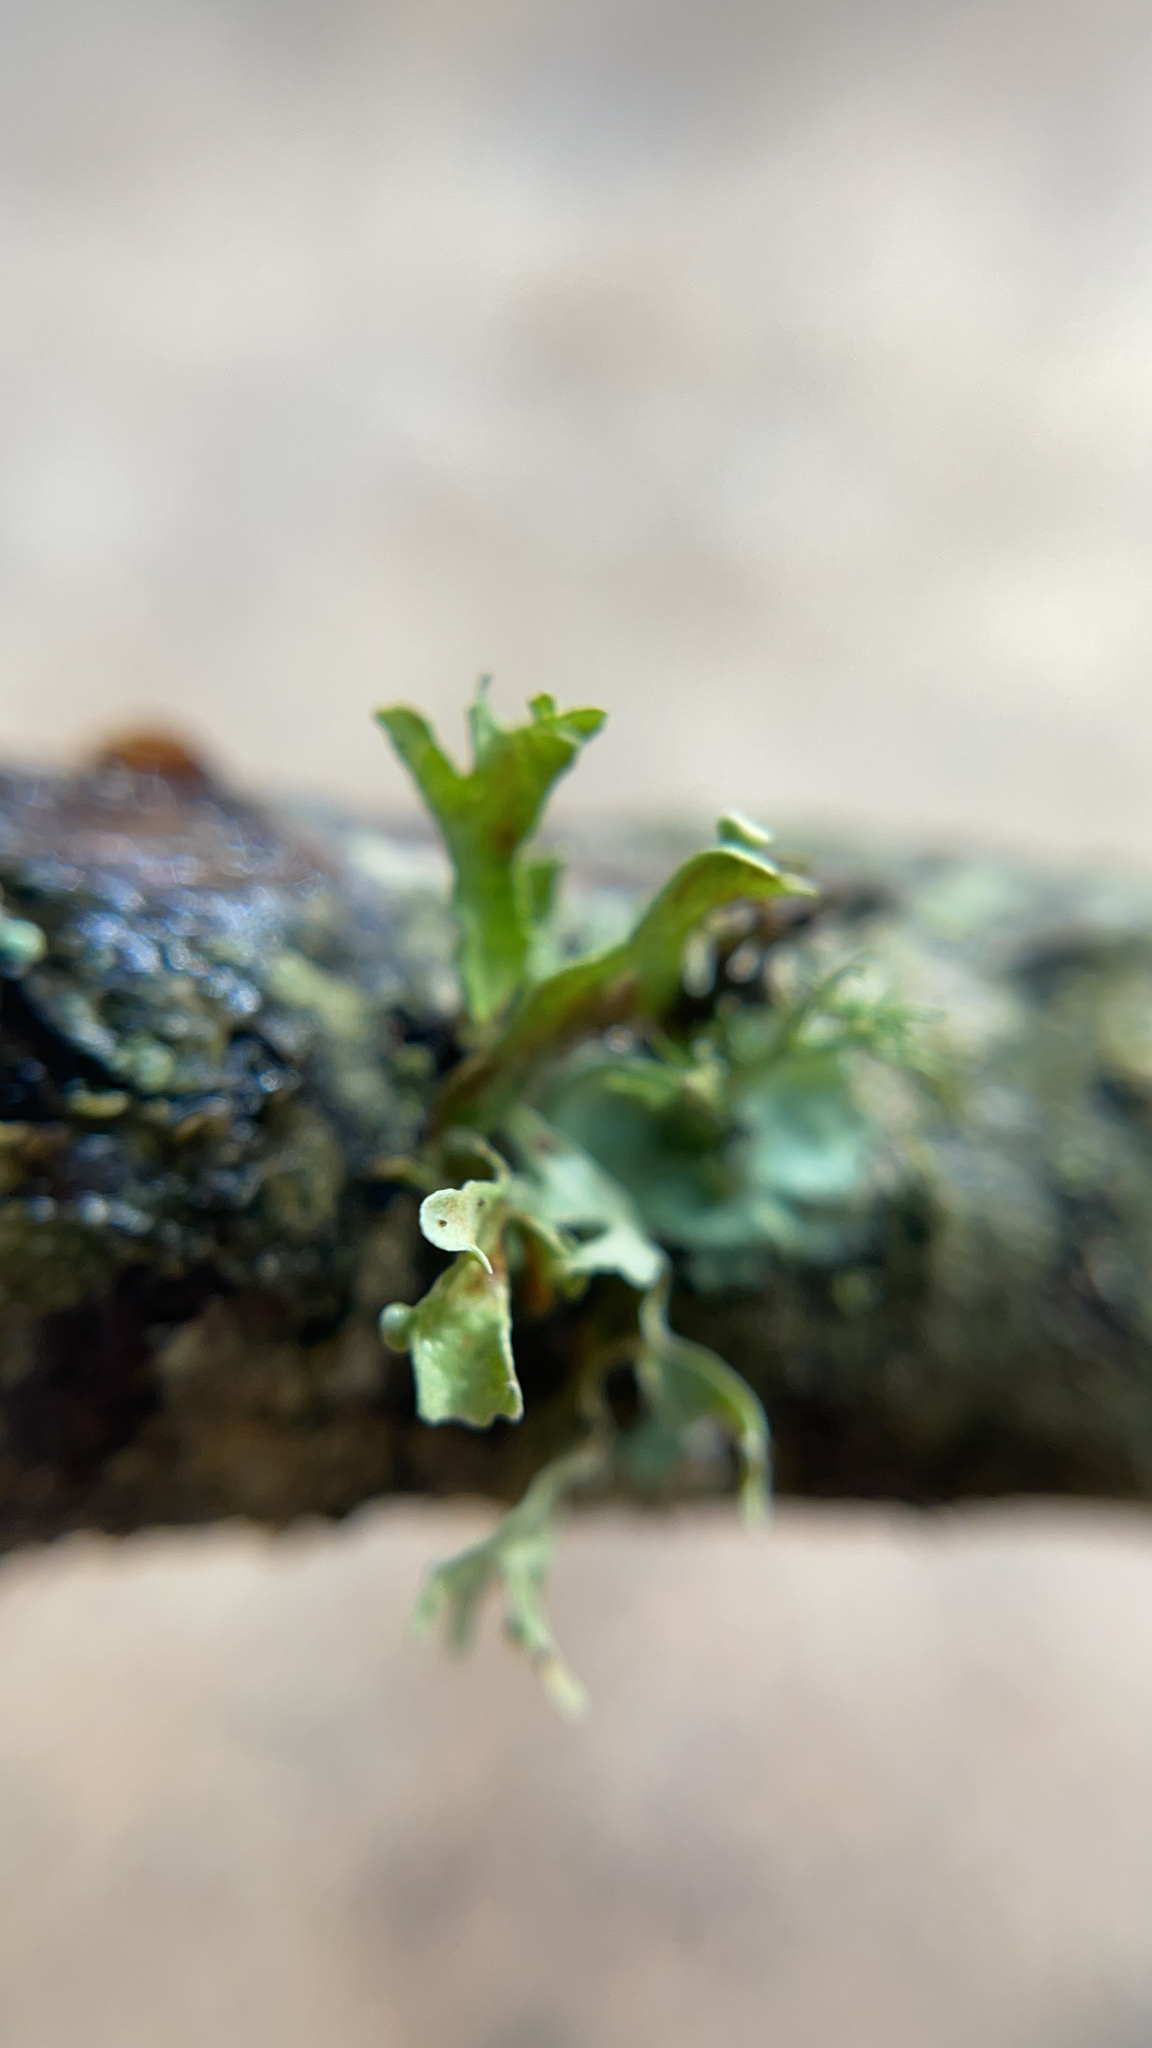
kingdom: Fungi
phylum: Ascomycota
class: Lecanoromycetes
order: Lecanorales
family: Ramalinaceae
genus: Ramalina
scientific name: Ramalina
